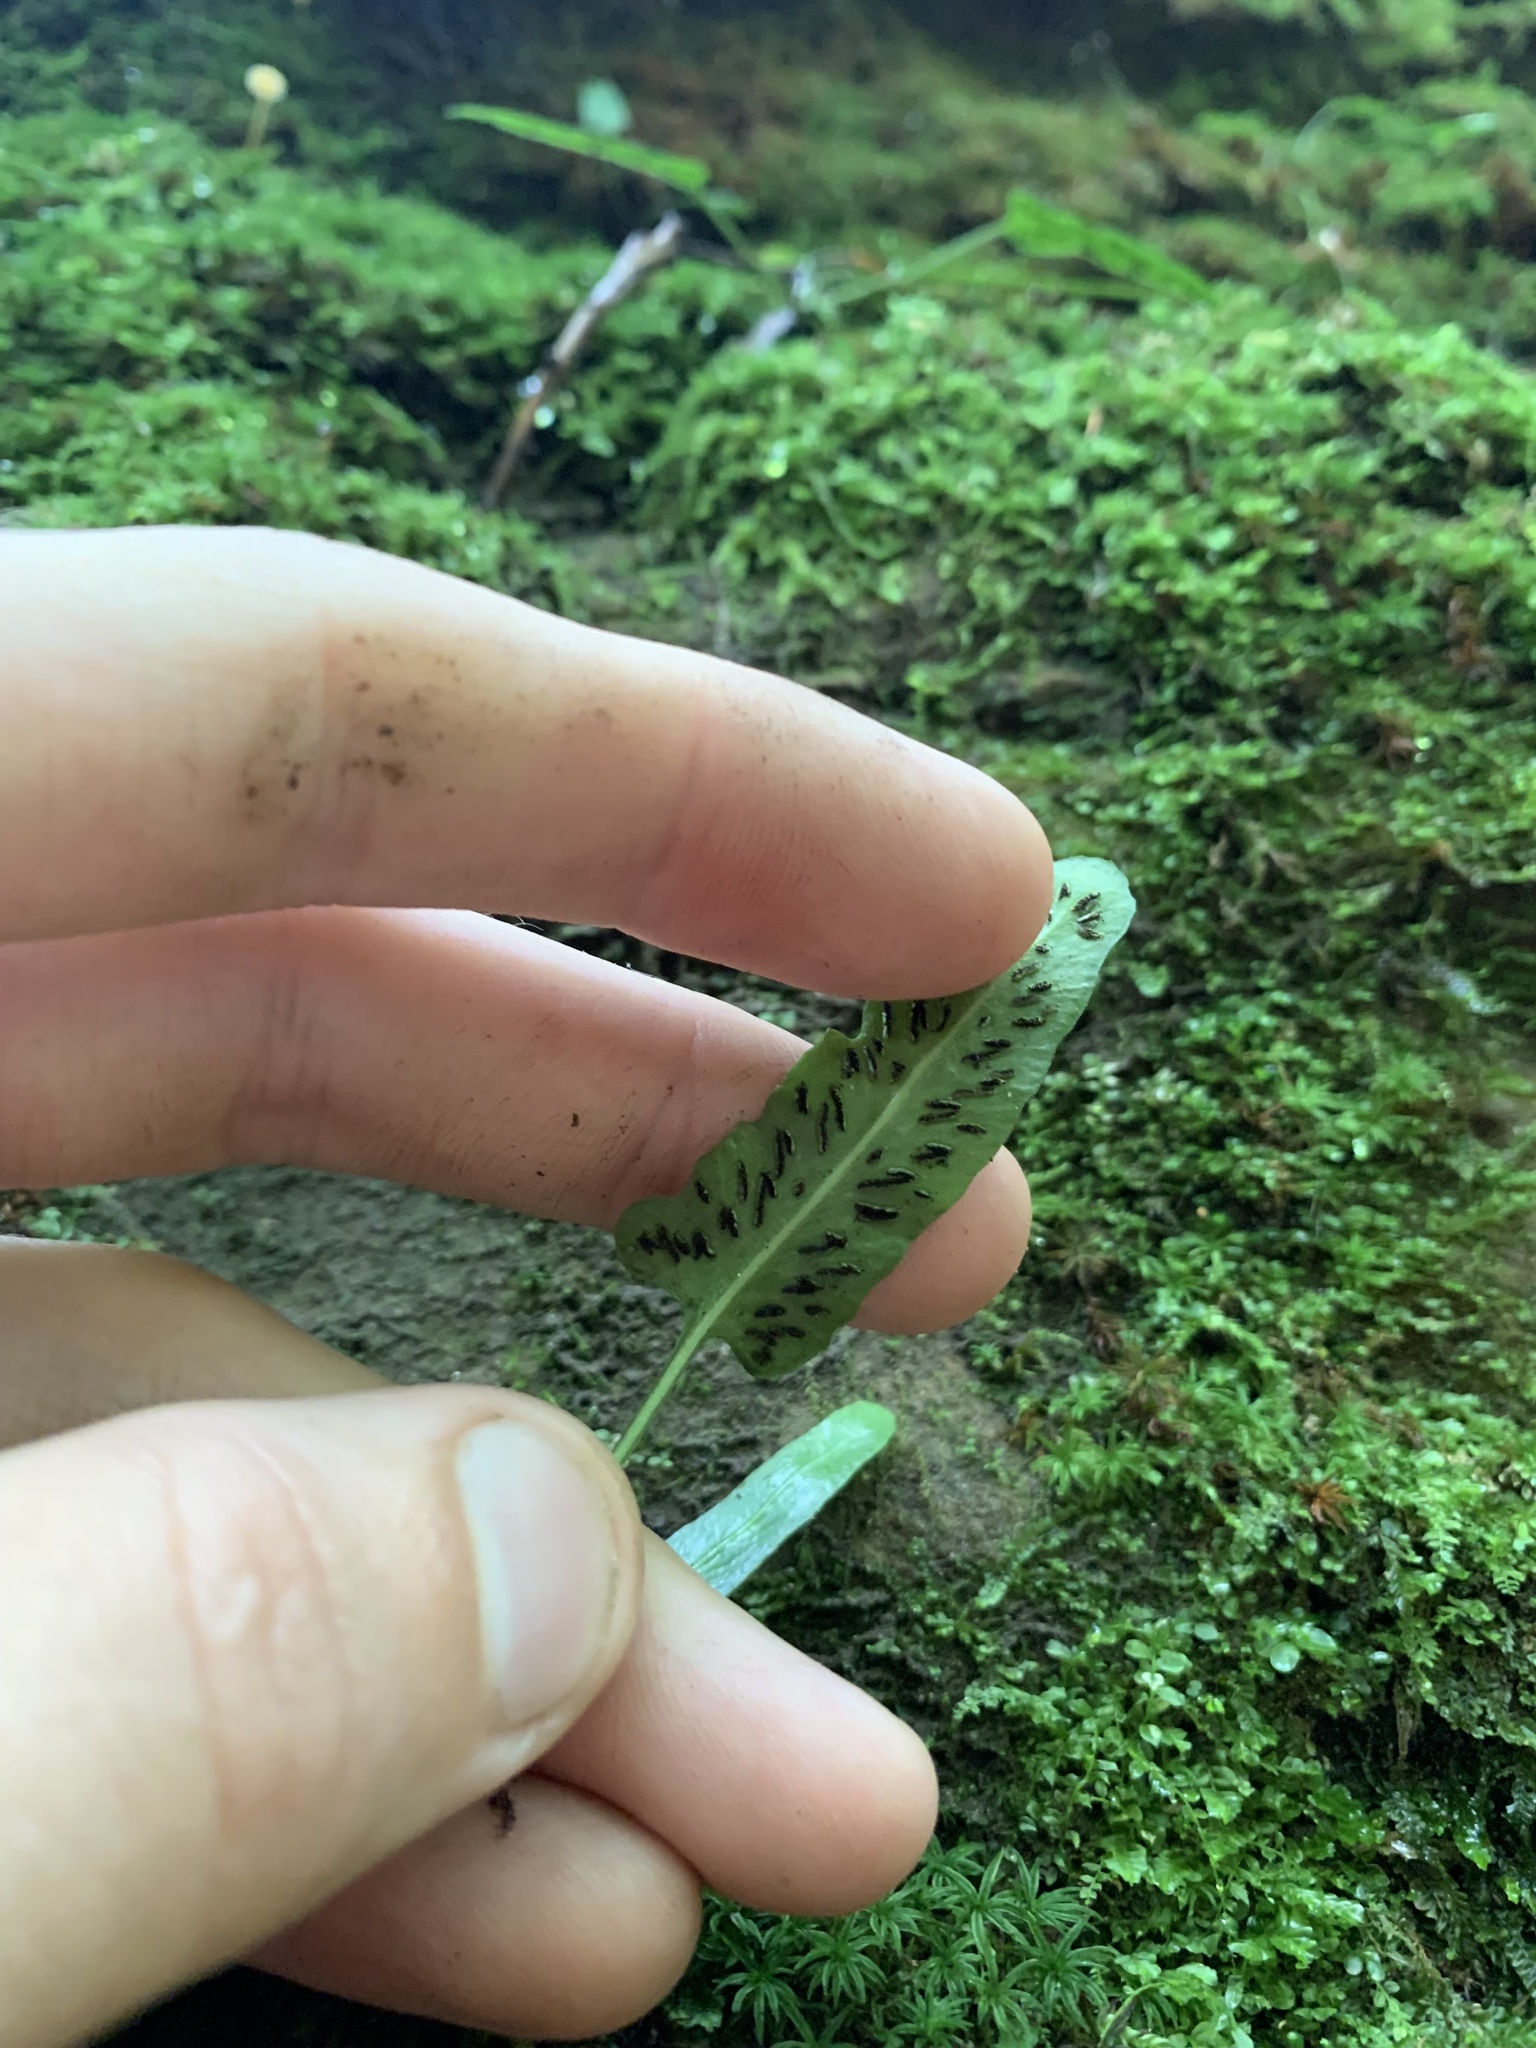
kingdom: Plantae
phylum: Tracheophyta
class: Polypodiopsida
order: Polypodiales
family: Aspleniaceae
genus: Asplenium
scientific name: Asplenium rhizophyllum
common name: Walking fern
